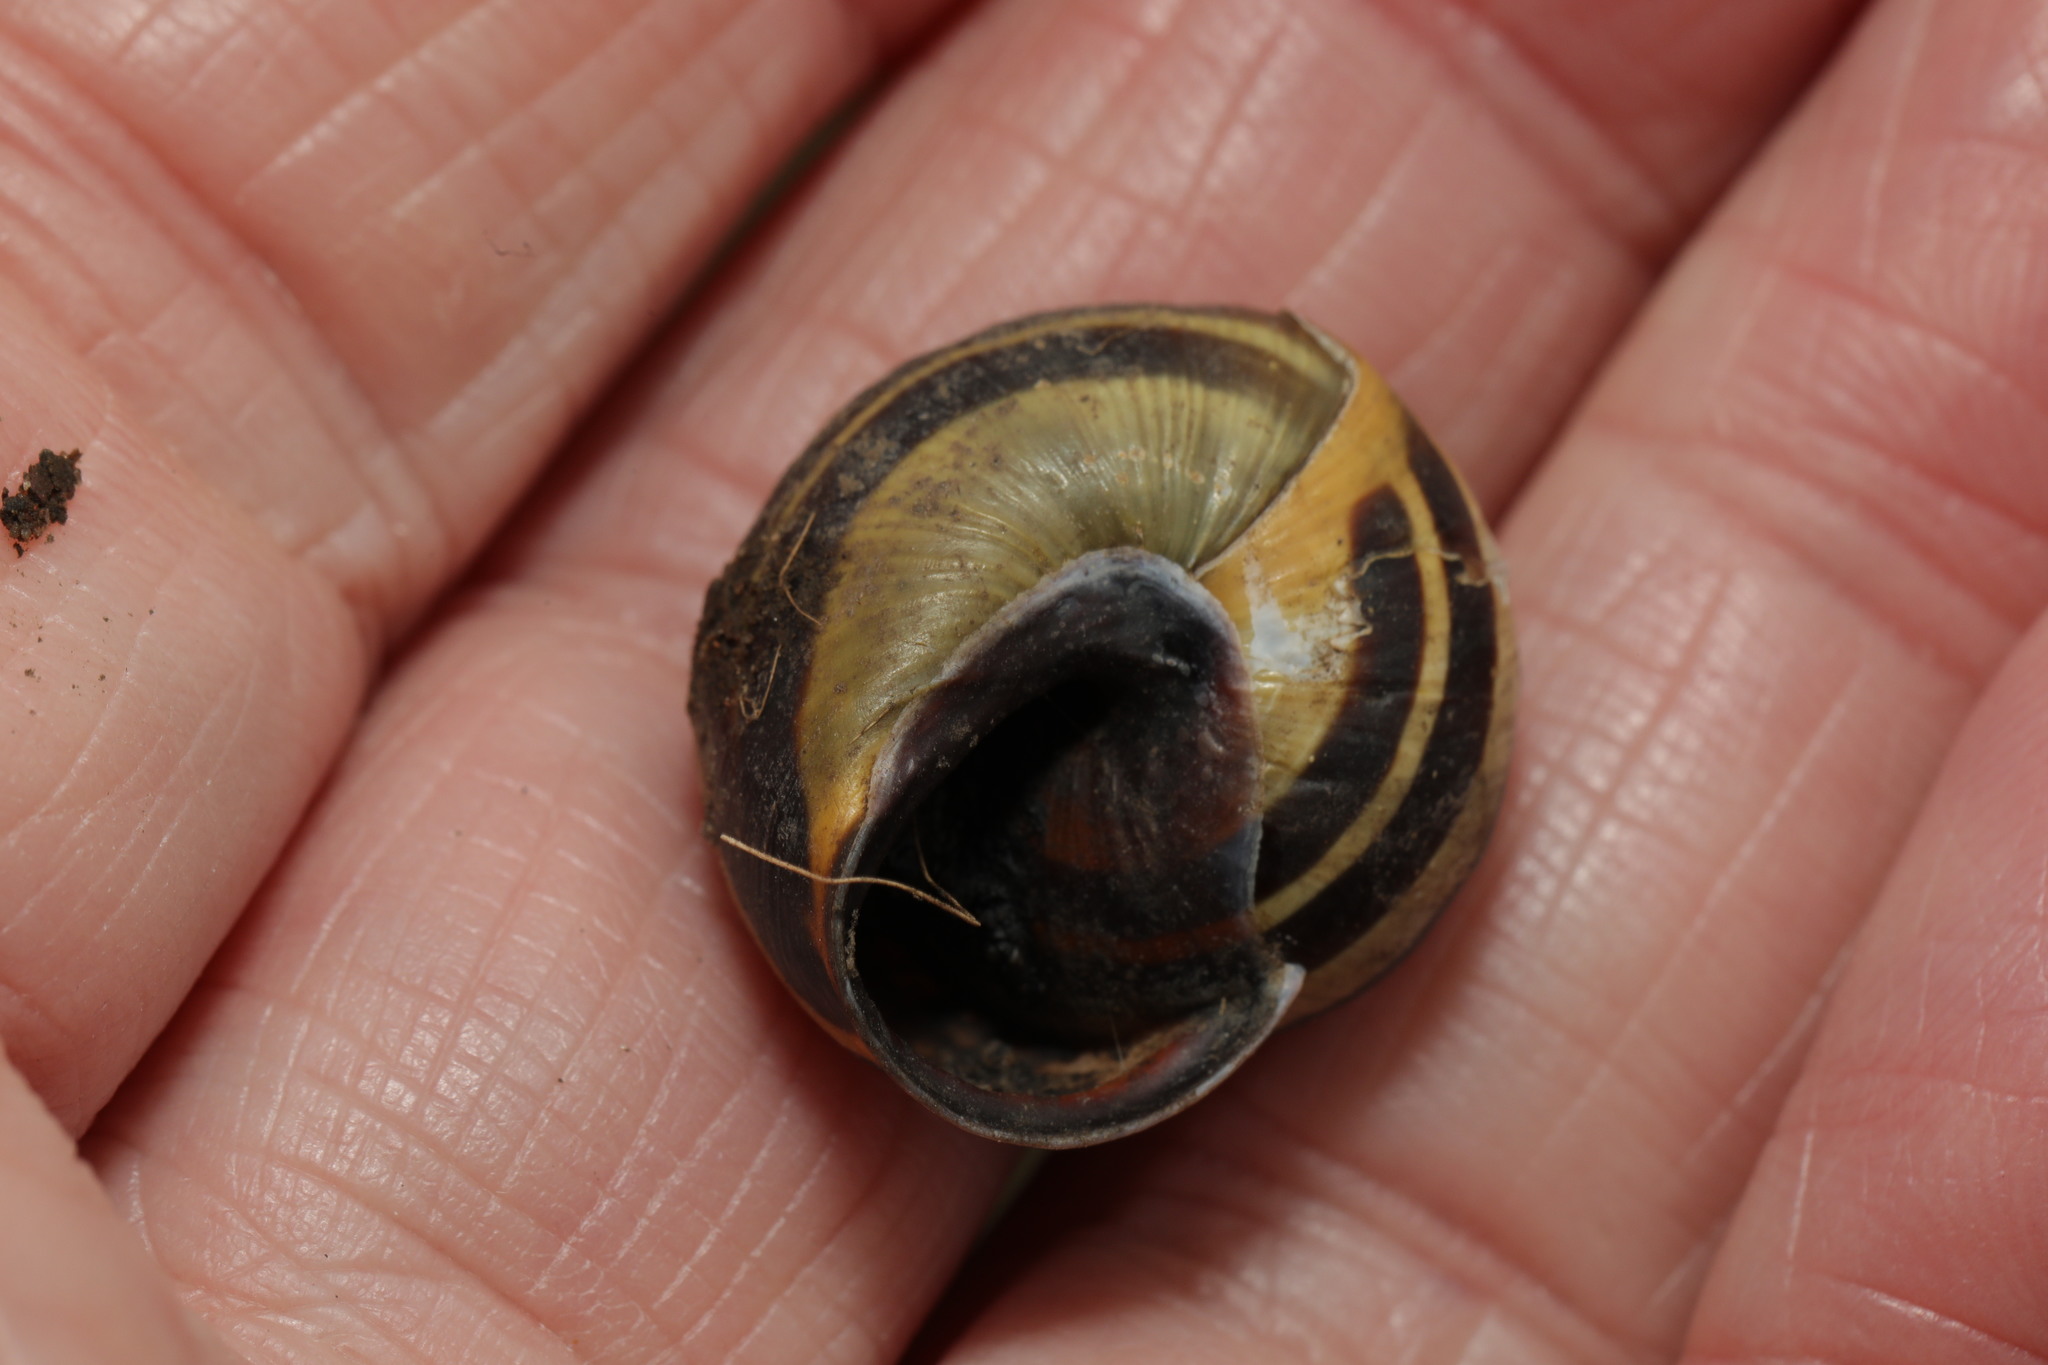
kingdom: Animalia
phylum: Mollusca
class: Gastropoda
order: Stylommatophora
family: Helicidae
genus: Cepaea
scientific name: Cepaea nemoralis
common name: Grovesnail
